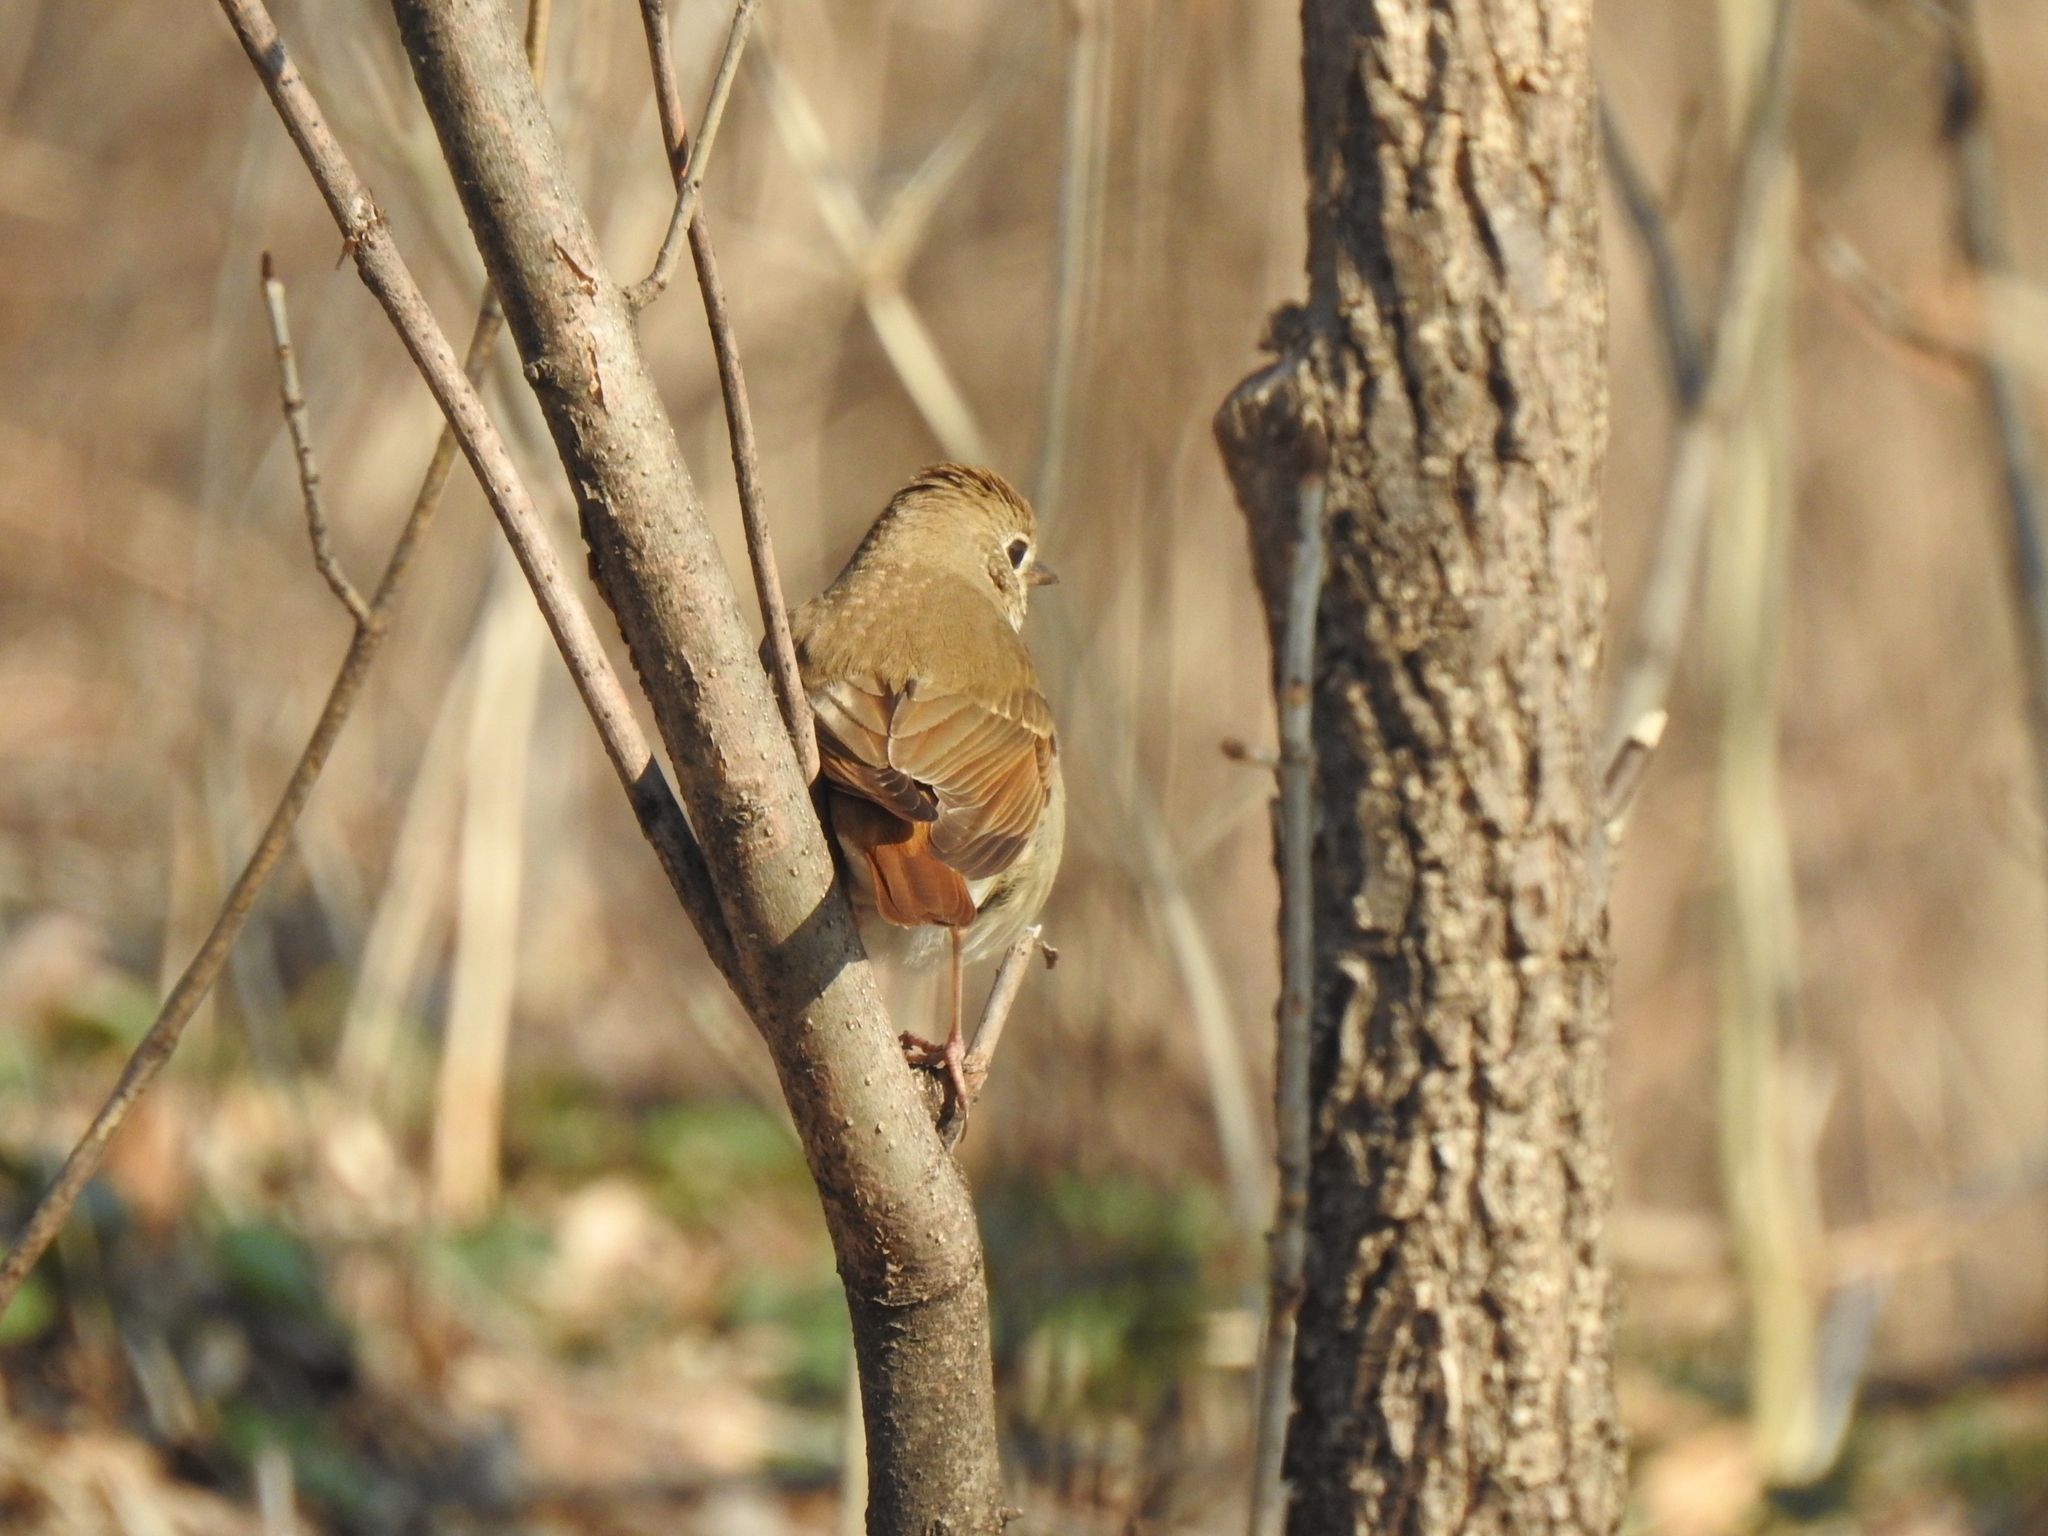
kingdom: Animalia
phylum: Chordata
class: Aves
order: Passeriformes
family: Turdidae
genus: Catharus
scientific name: Catharus guttatus
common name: Hermit thrush
